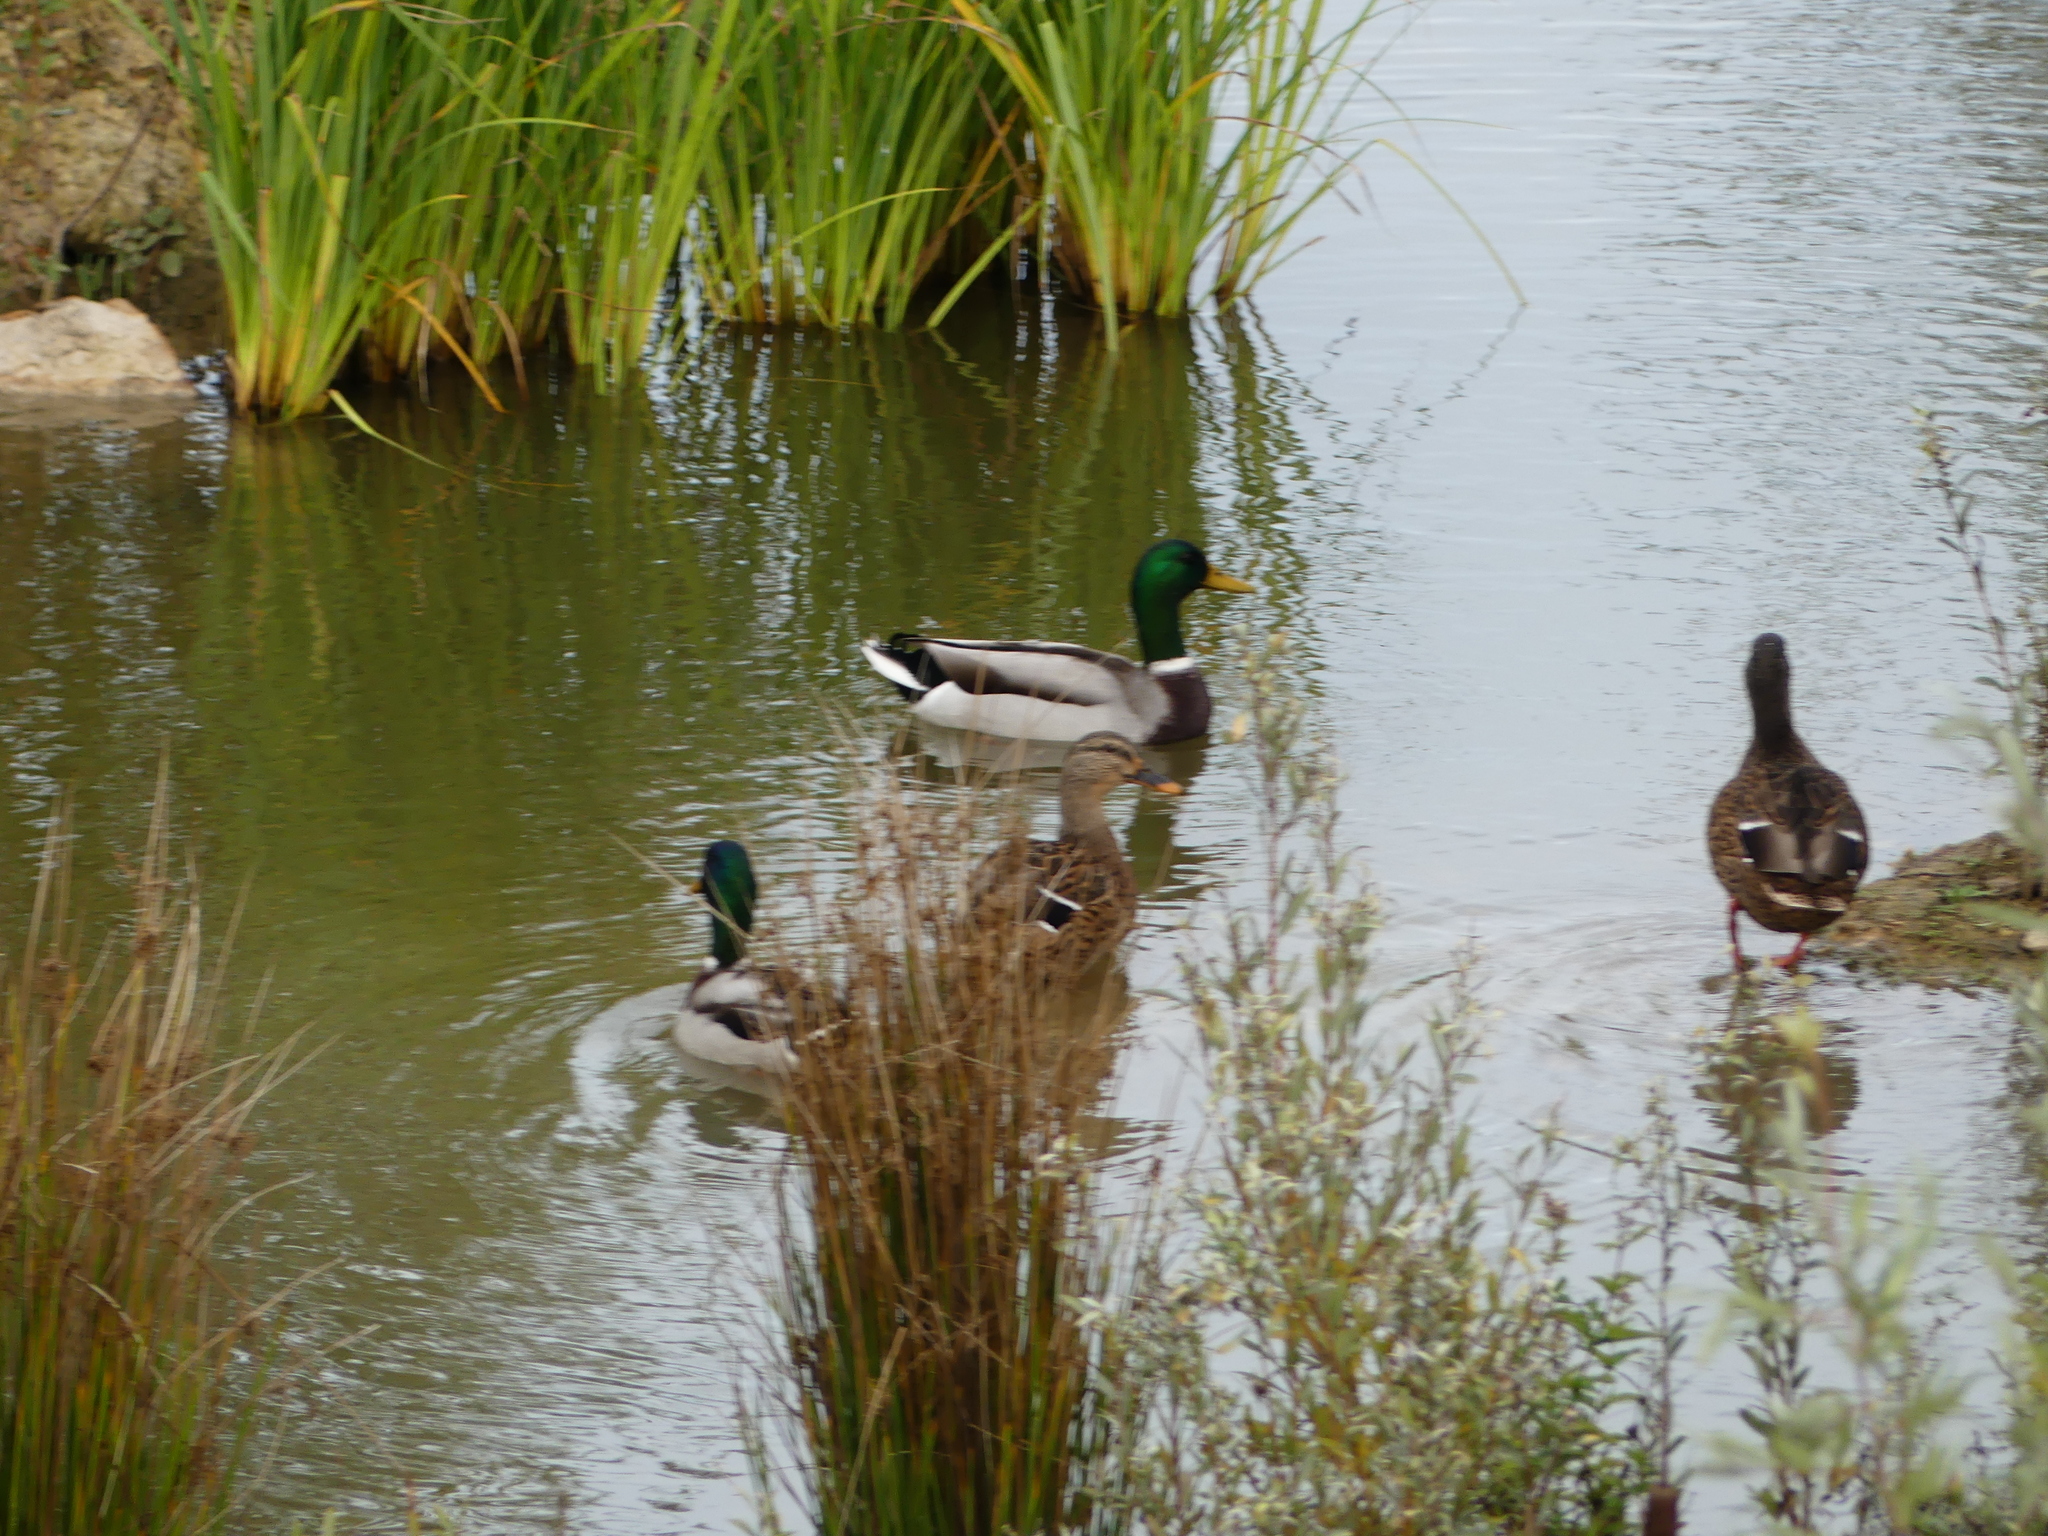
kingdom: Animalia
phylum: Chordata
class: Aves
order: Anseriformes
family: Anatidae
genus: Anas
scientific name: Anas platyrhynchos
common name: Mallard
